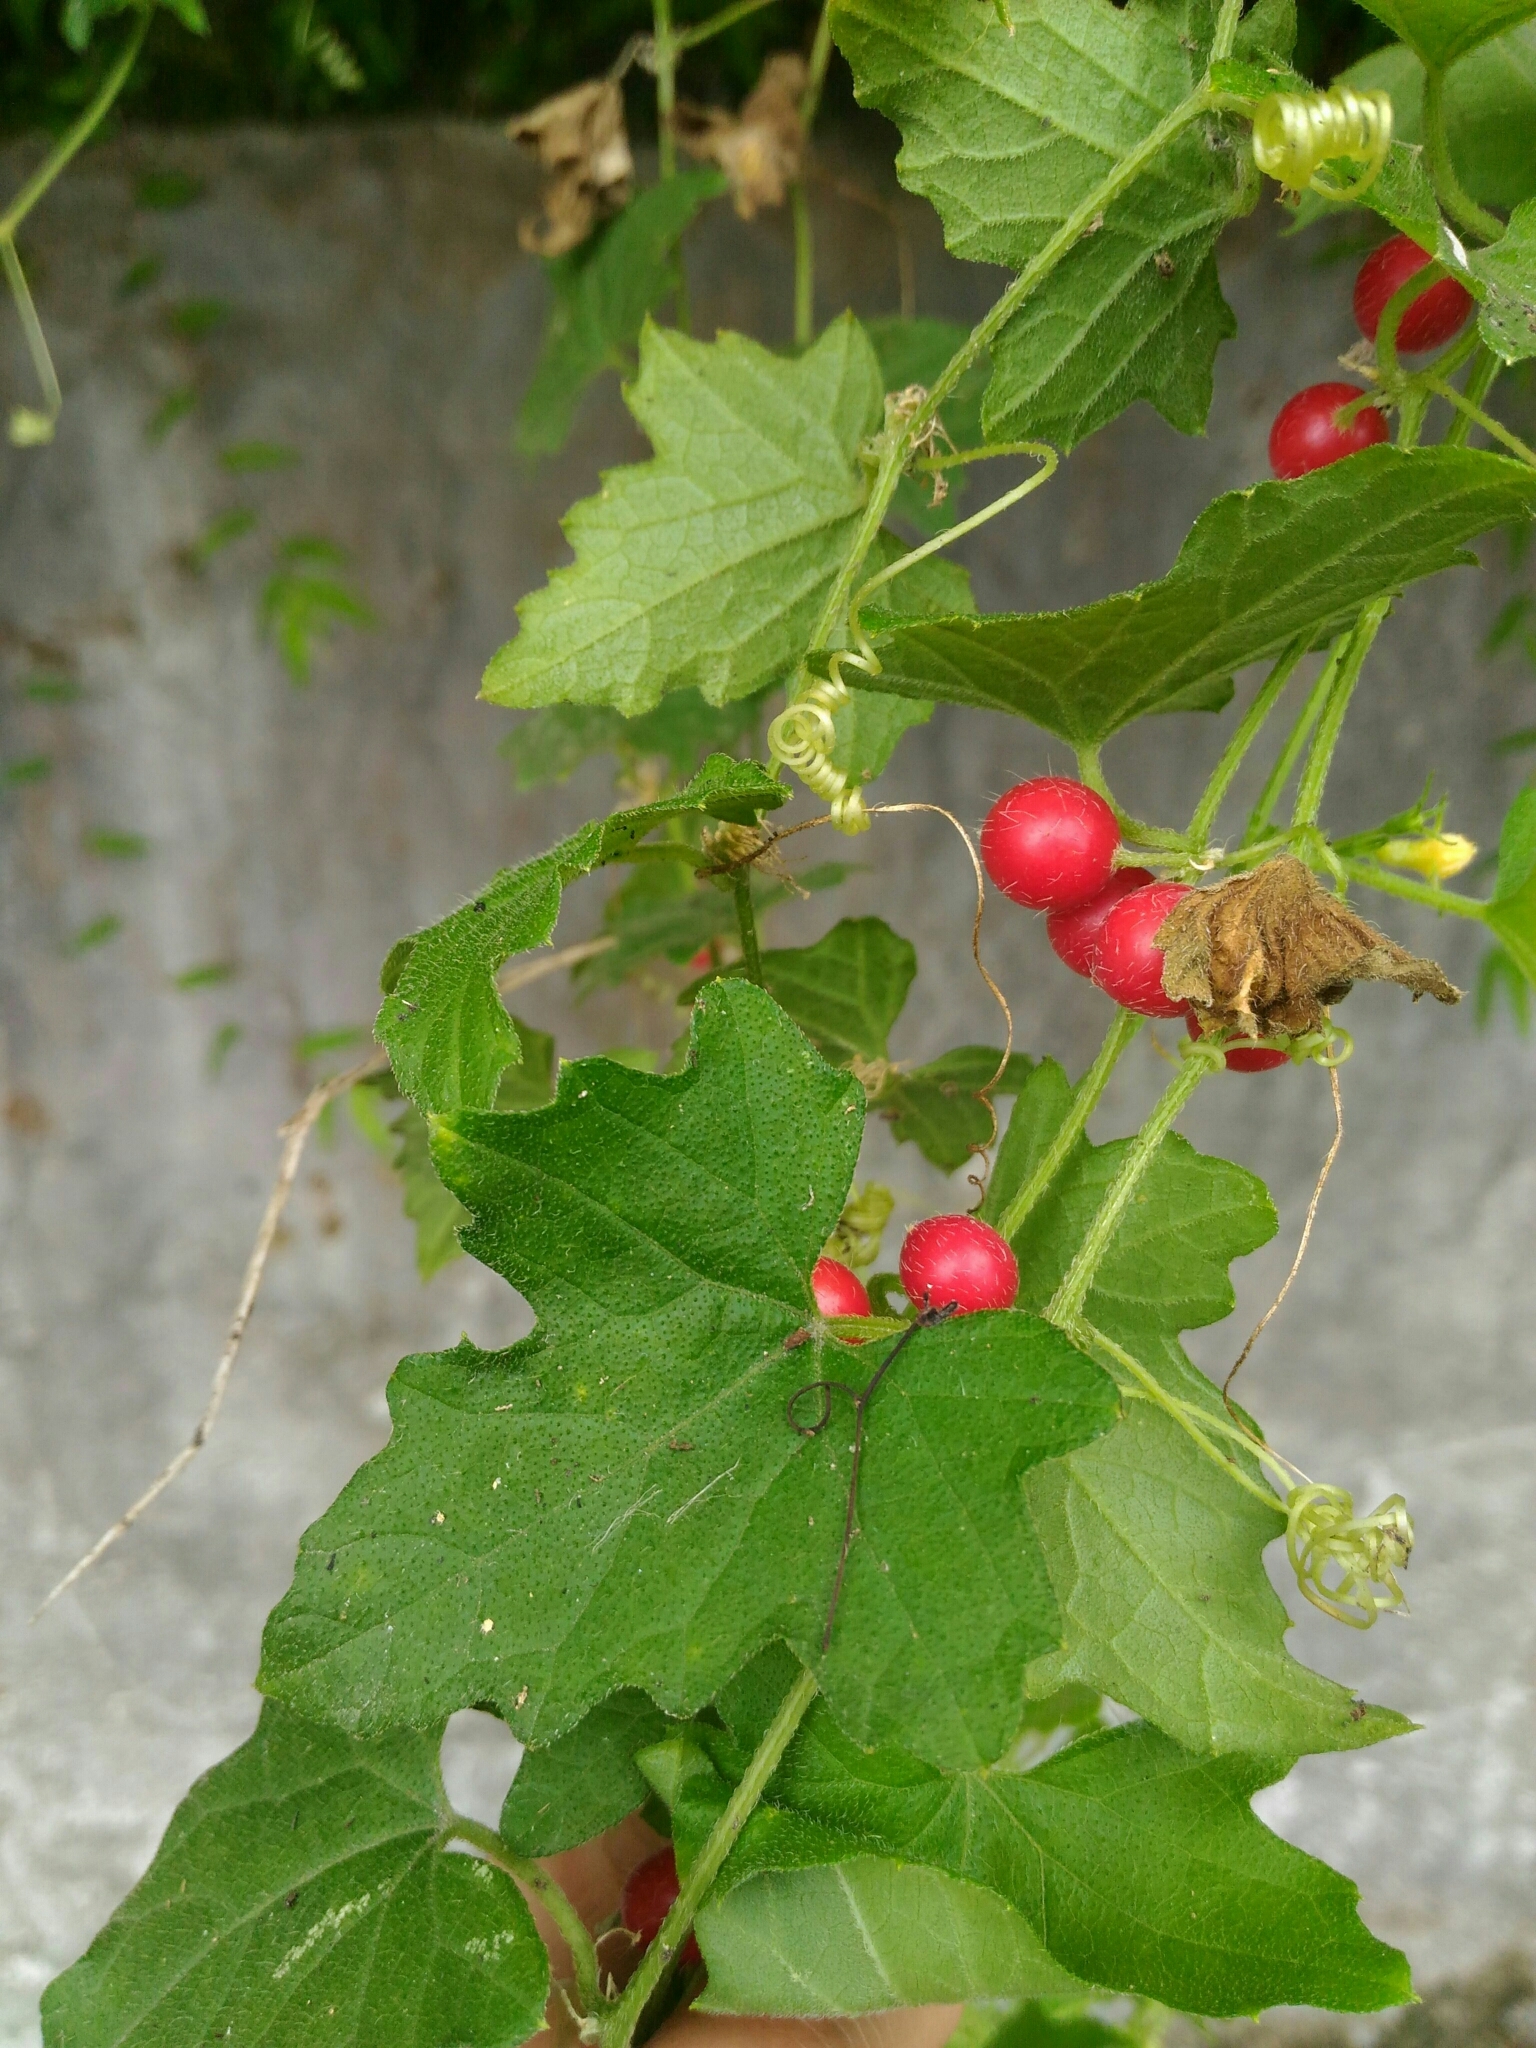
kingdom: Plantae
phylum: Tracheophyta
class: Magnoliopsida
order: Cucurbitales
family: Cucurbitaceae
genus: Cucumis
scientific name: Cucumis maderaspatanus
